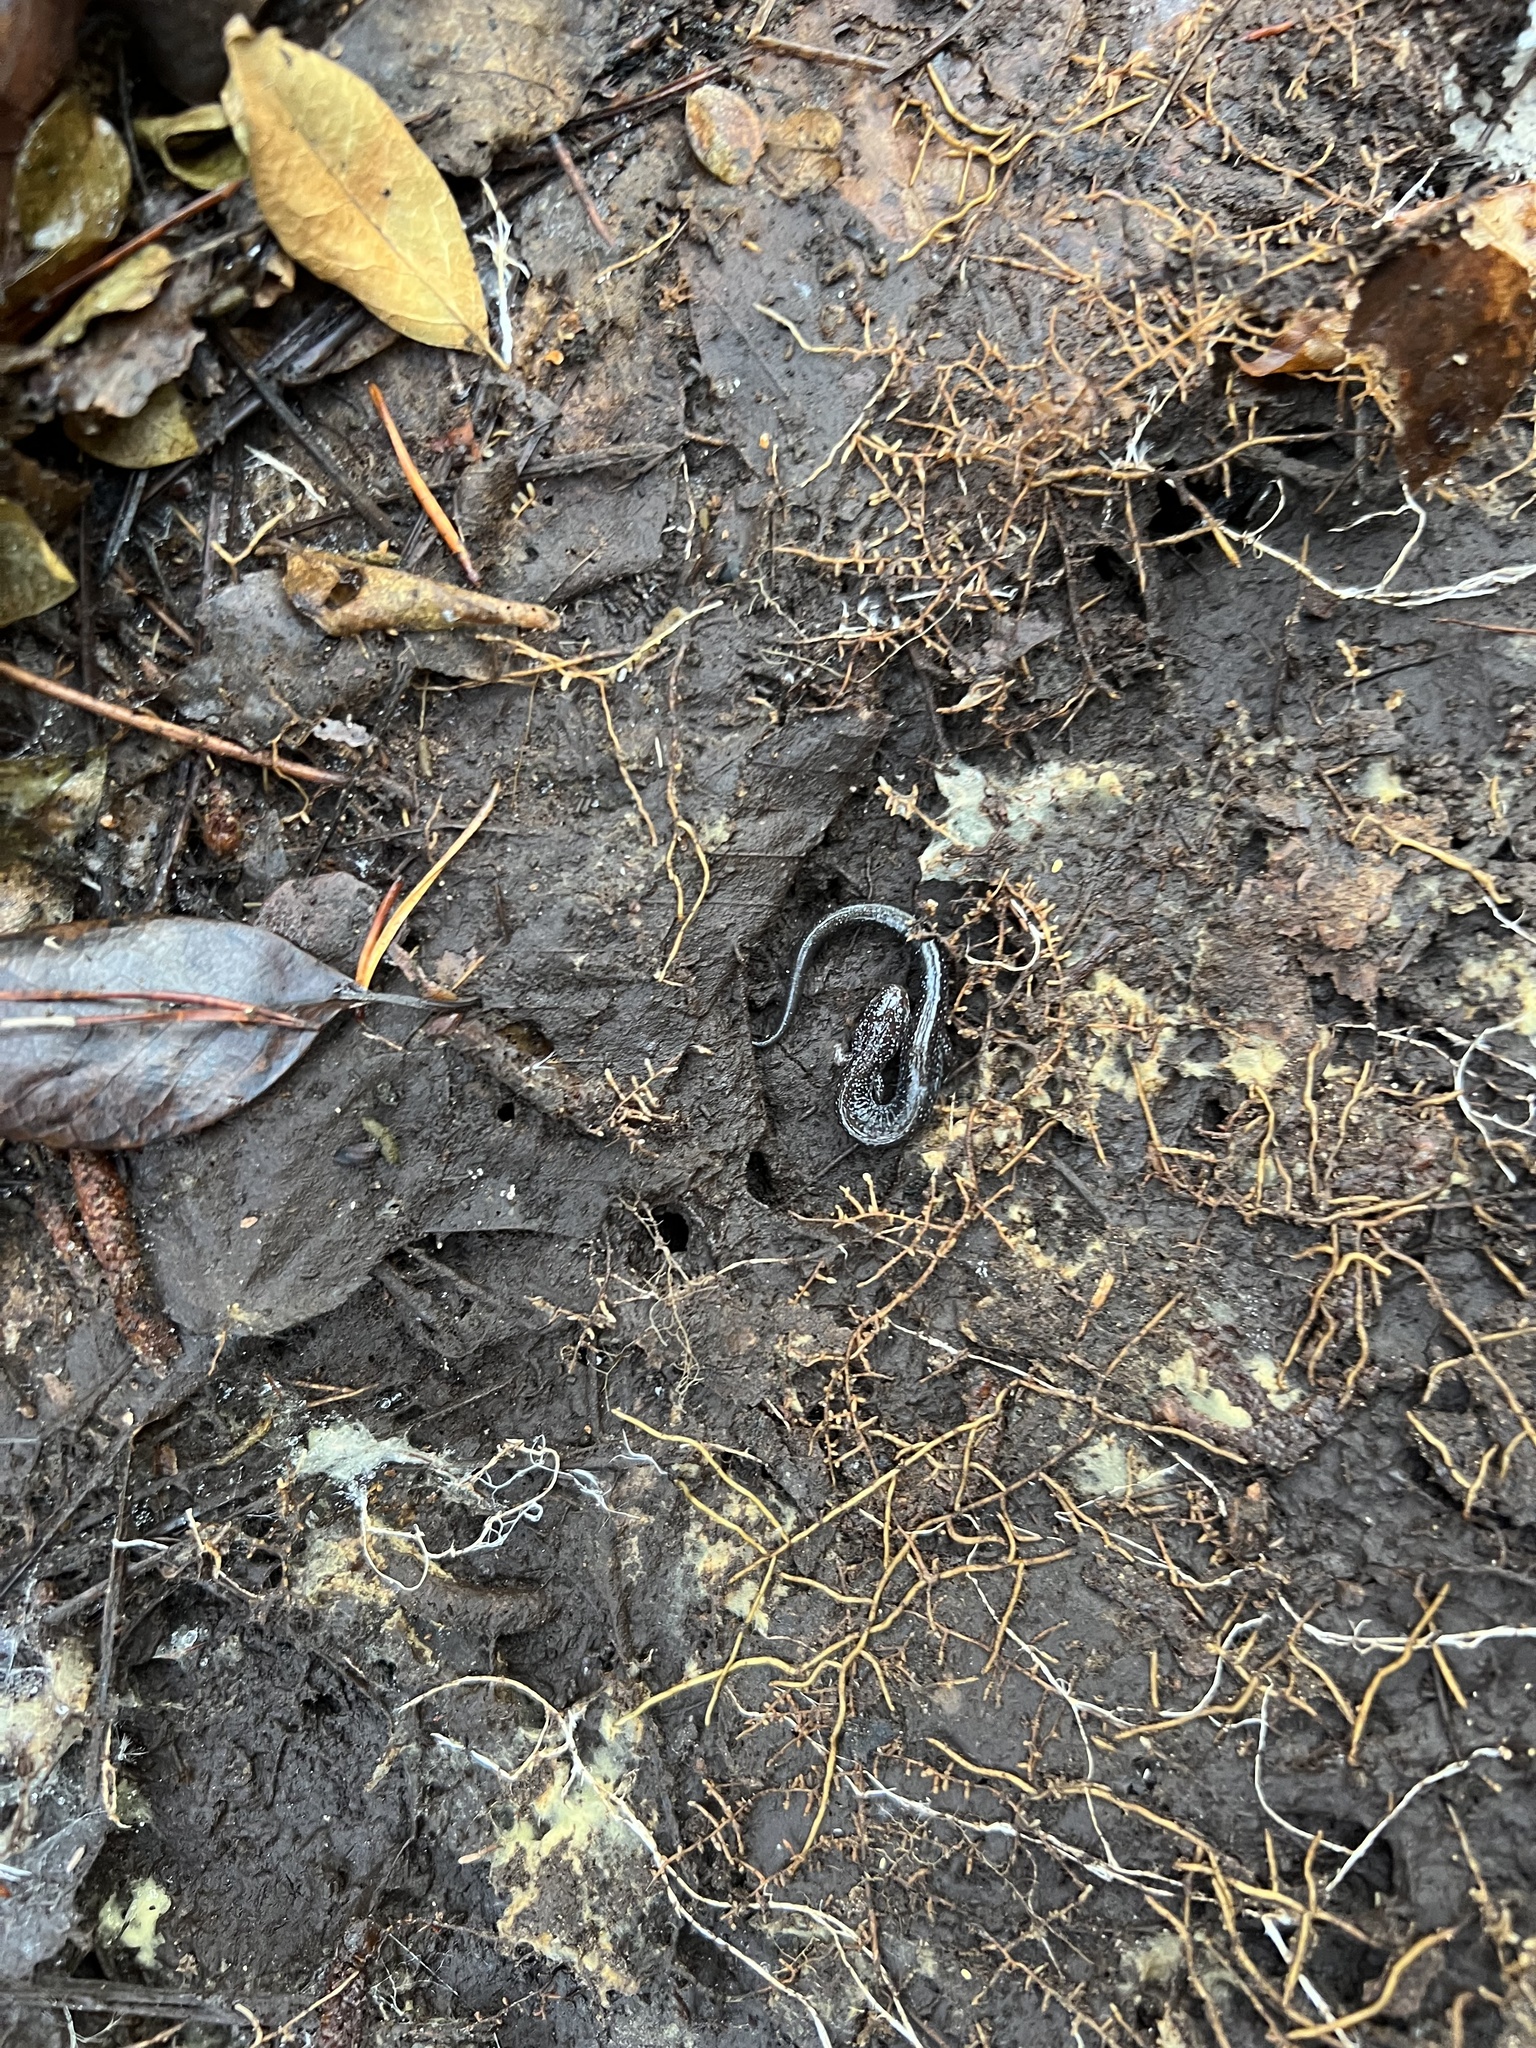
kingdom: Animalia
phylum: Chordata
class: Amphibia
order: Caudata
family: Plethodontidae
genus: Plethodon
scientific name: Plethodon cinereus
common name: Redback salamander
